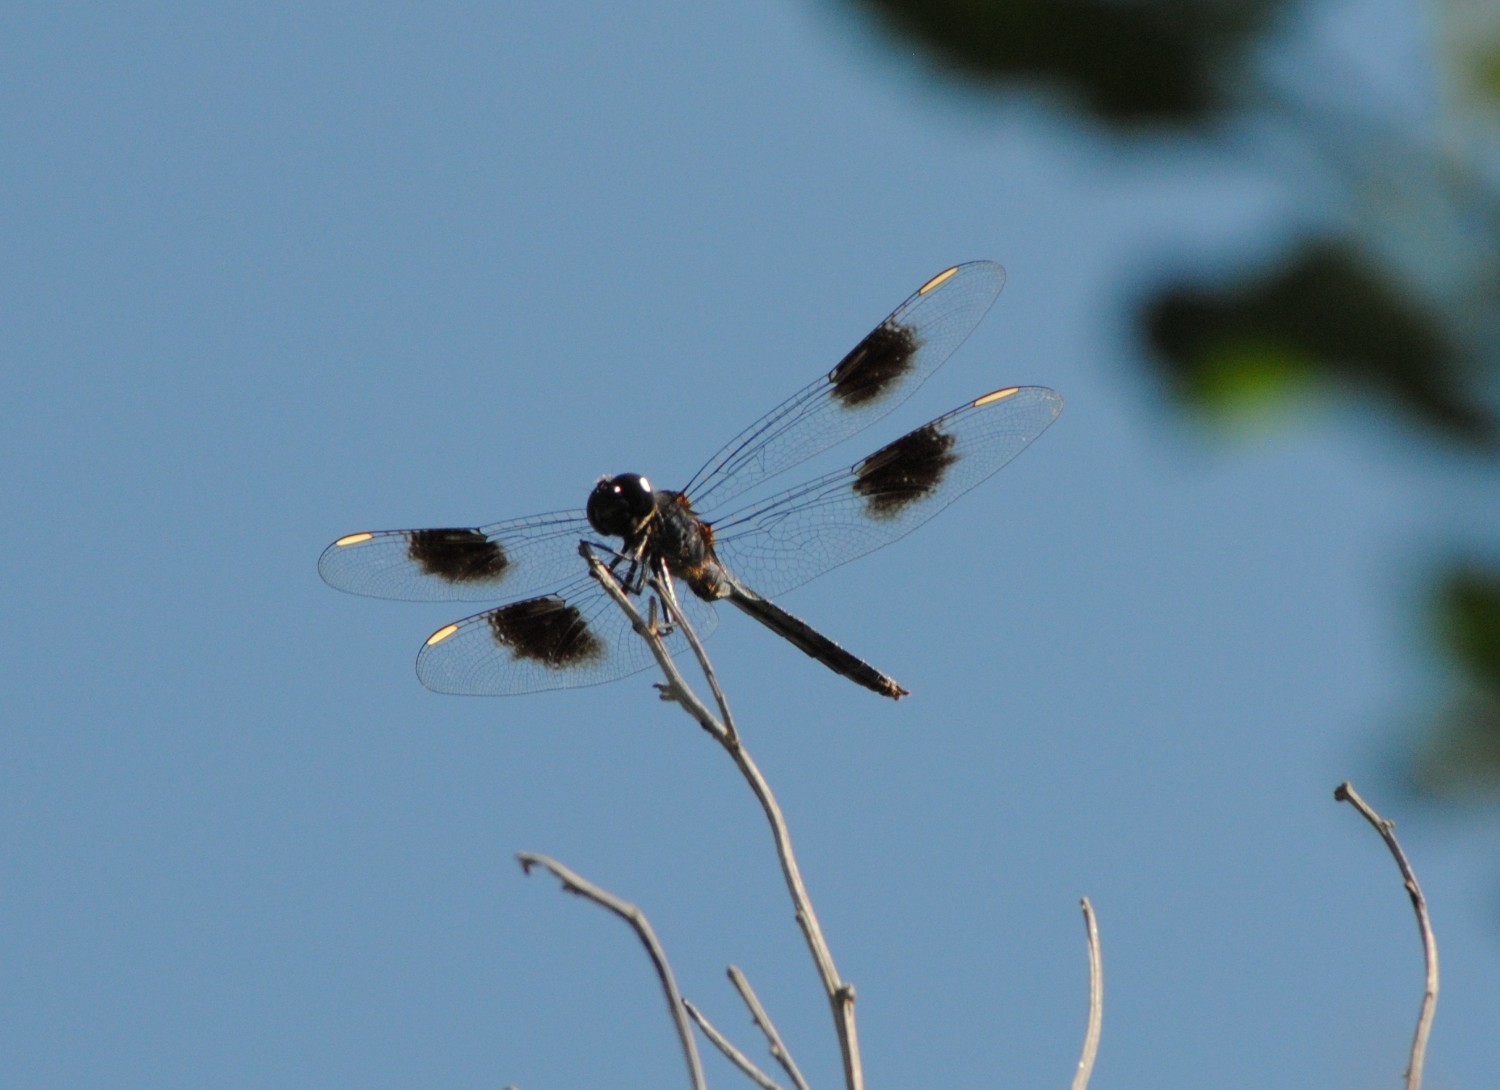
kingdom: Animalia
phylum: Arthropoda
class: Insecta
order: Odonata
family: Libellulidae
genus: Brachymesia
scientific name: Brachymesia gravida
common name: Four-spotted pennant
